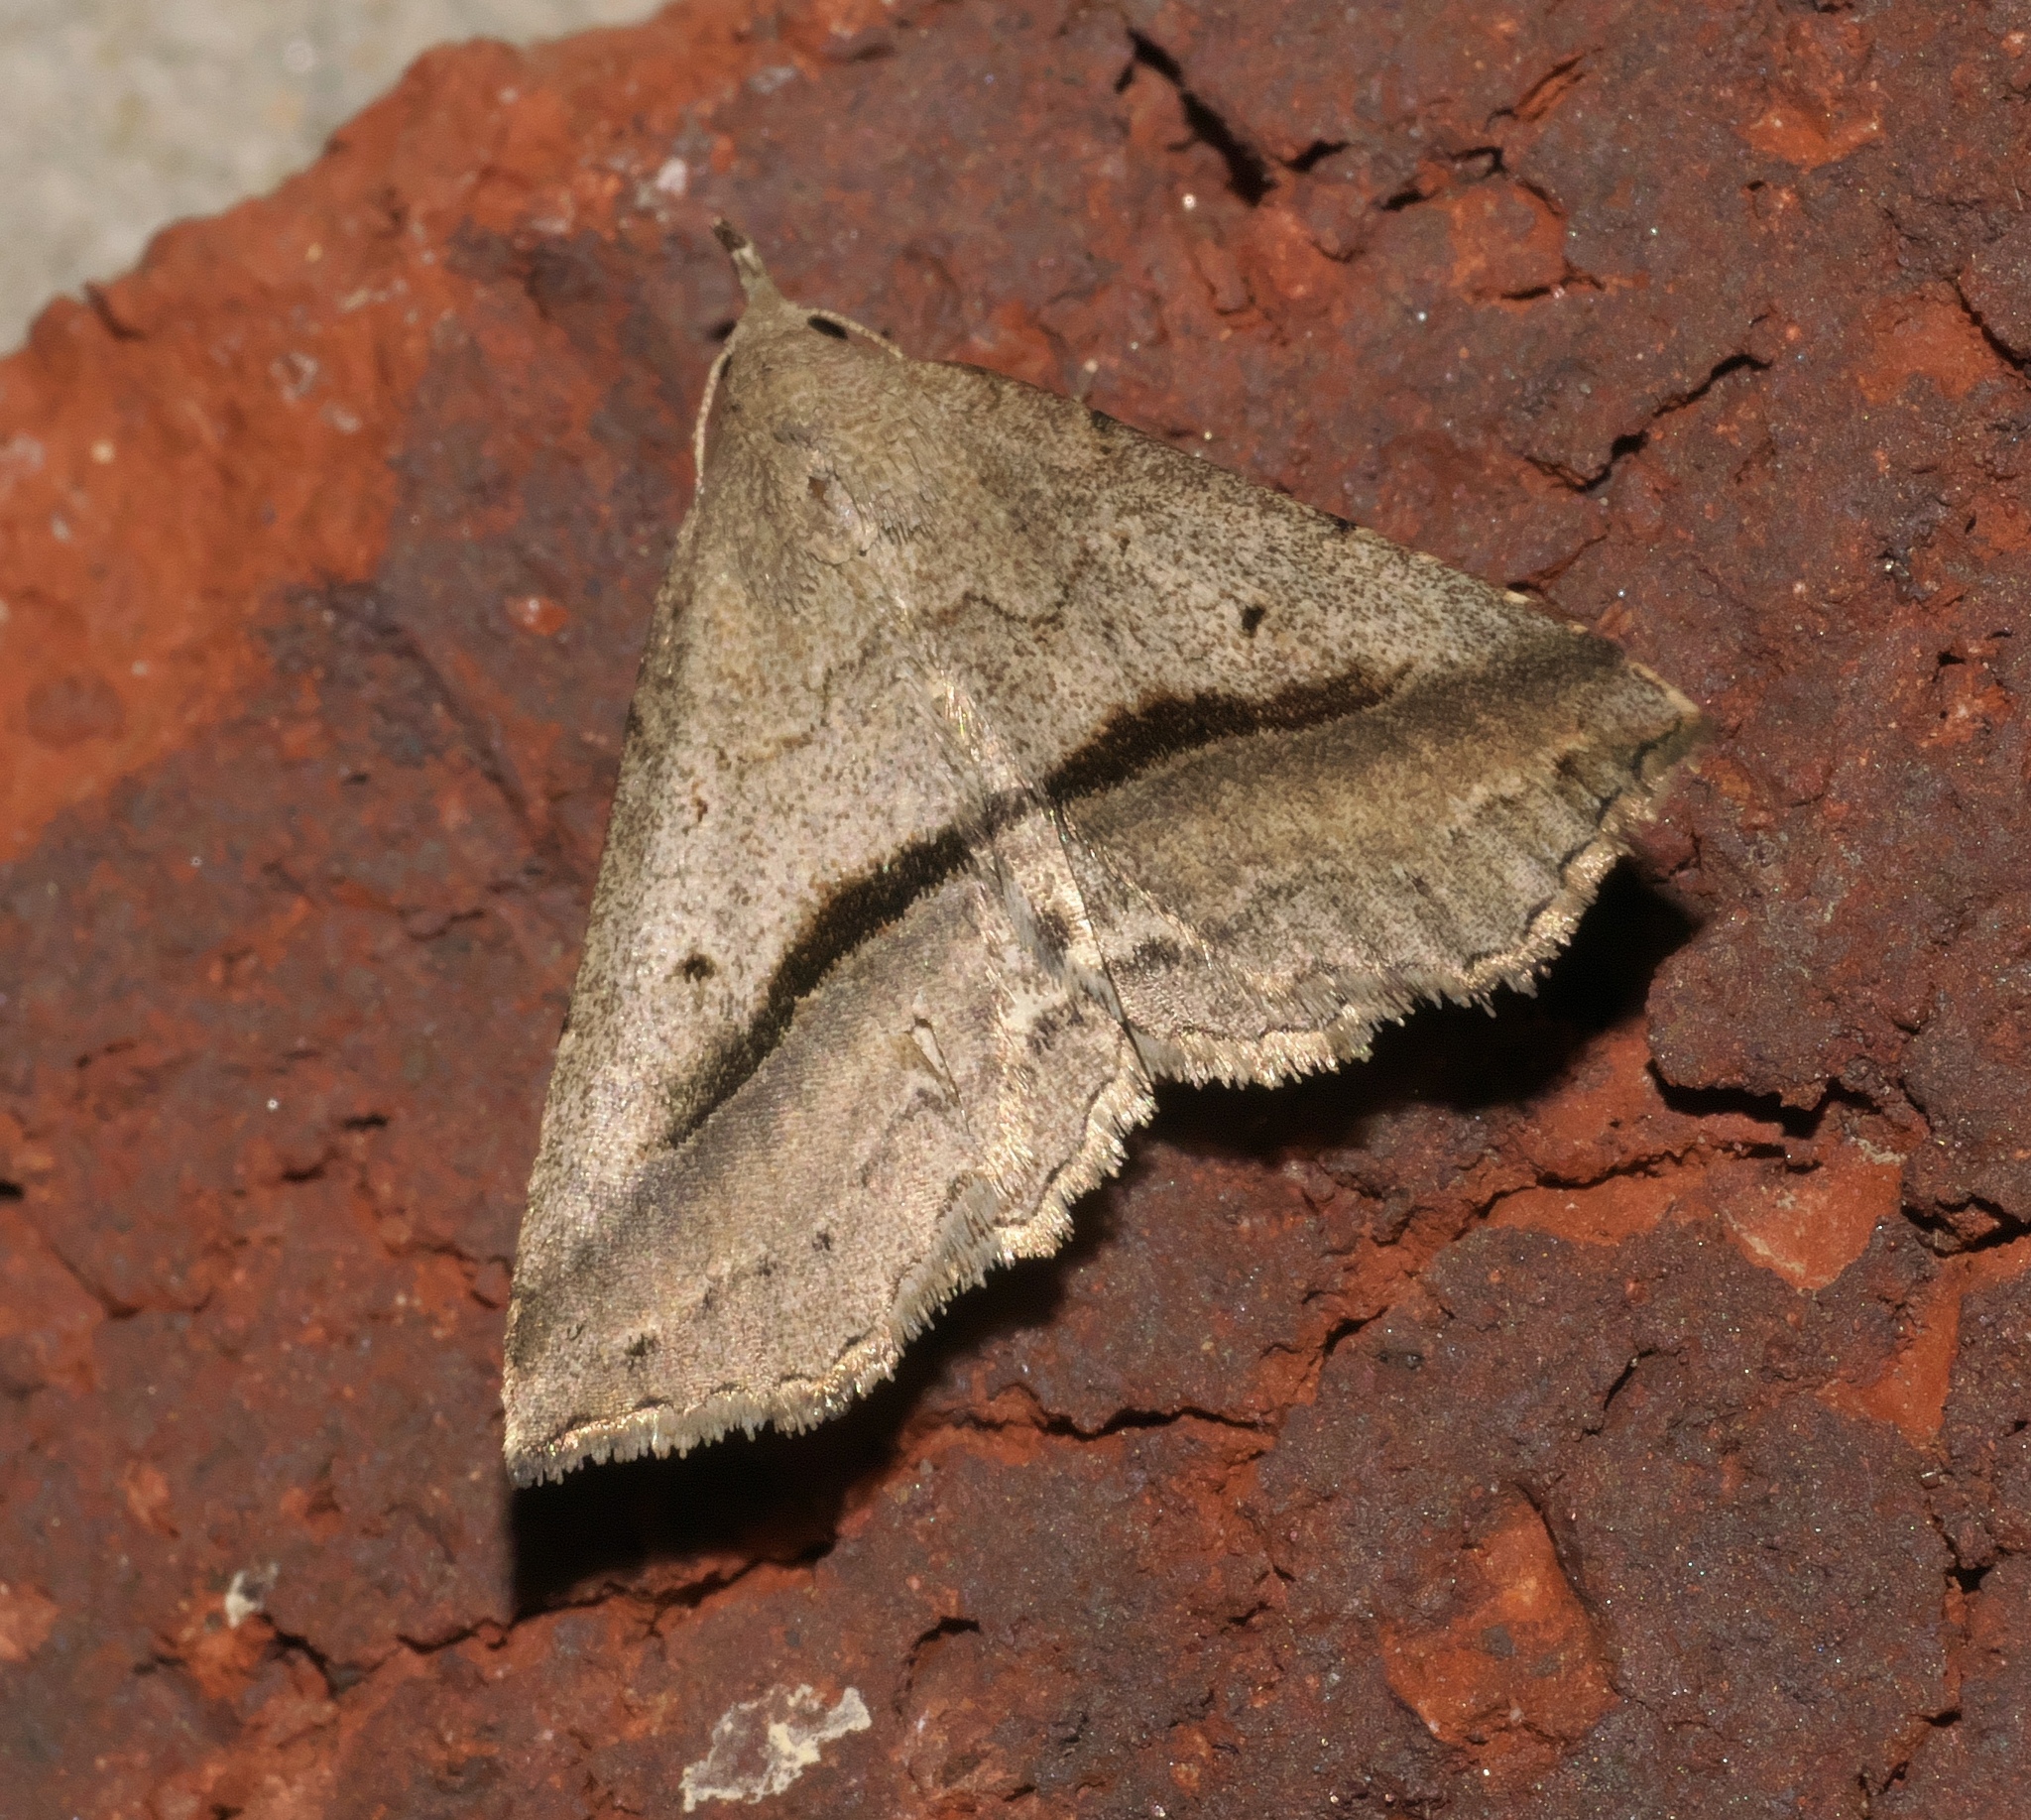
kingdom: Animalia
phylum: Arthropoda
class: Insecta
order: Lepidoptera
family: Erebidae
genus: Spargaloma
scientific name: Spargaloma perditalis
